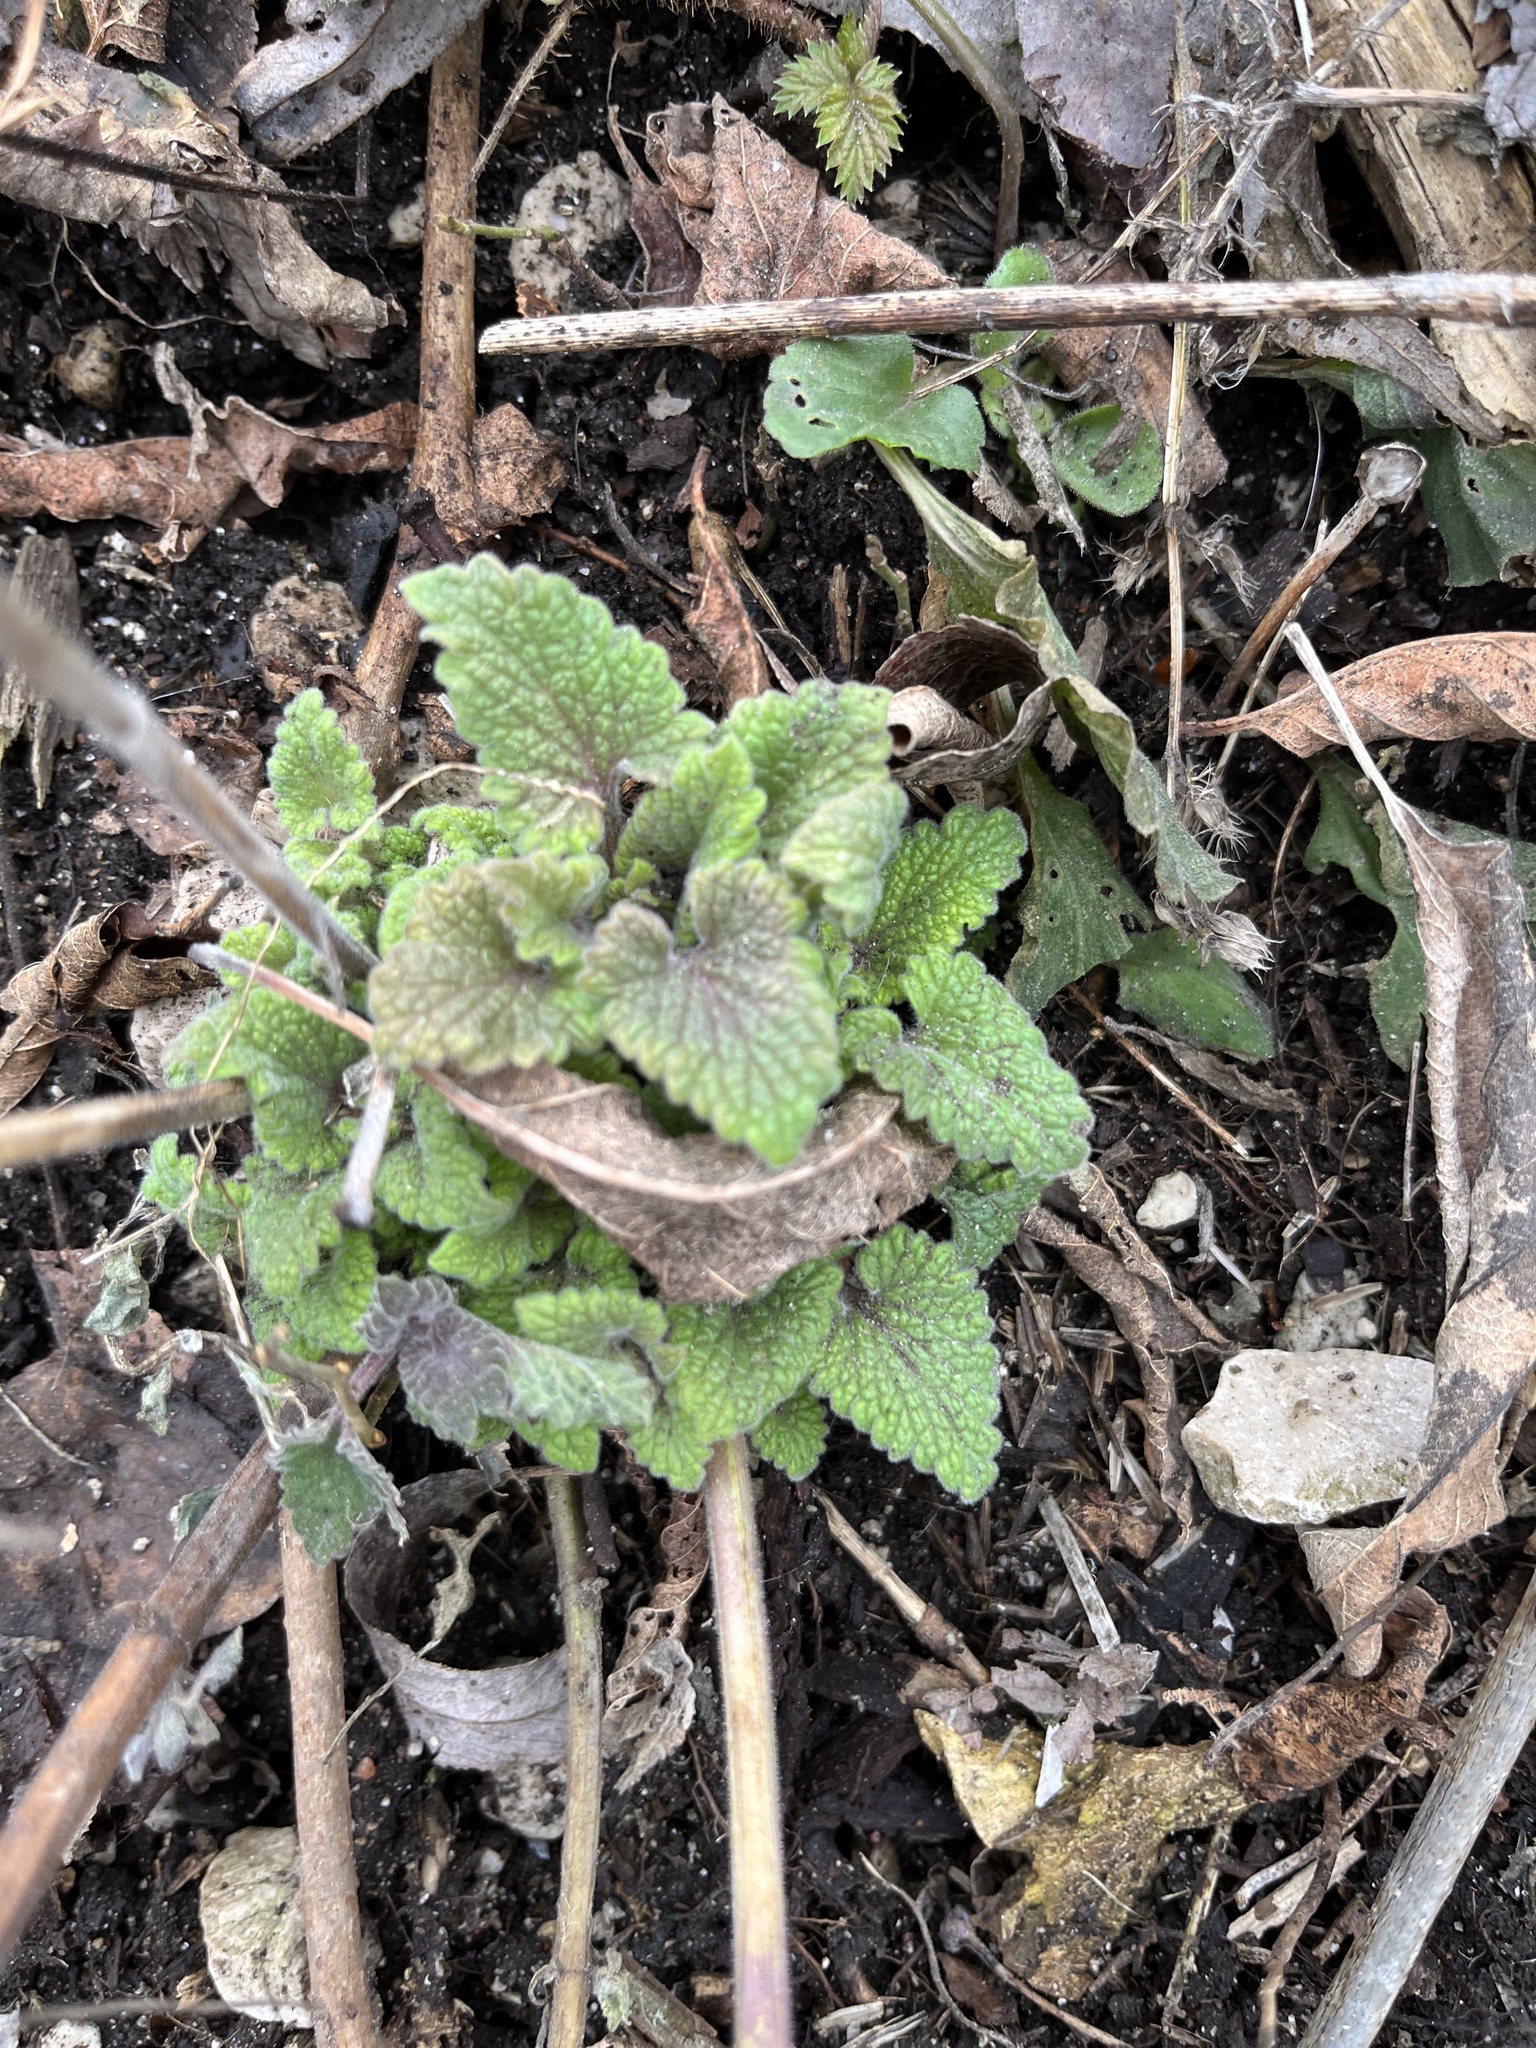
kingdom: Plantae
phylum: Tracheophyta
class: Magnoliopsida
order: Lamiales
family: Lamiaceae
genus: Nepeta
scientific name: Nepeta cataria
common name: Catnip
